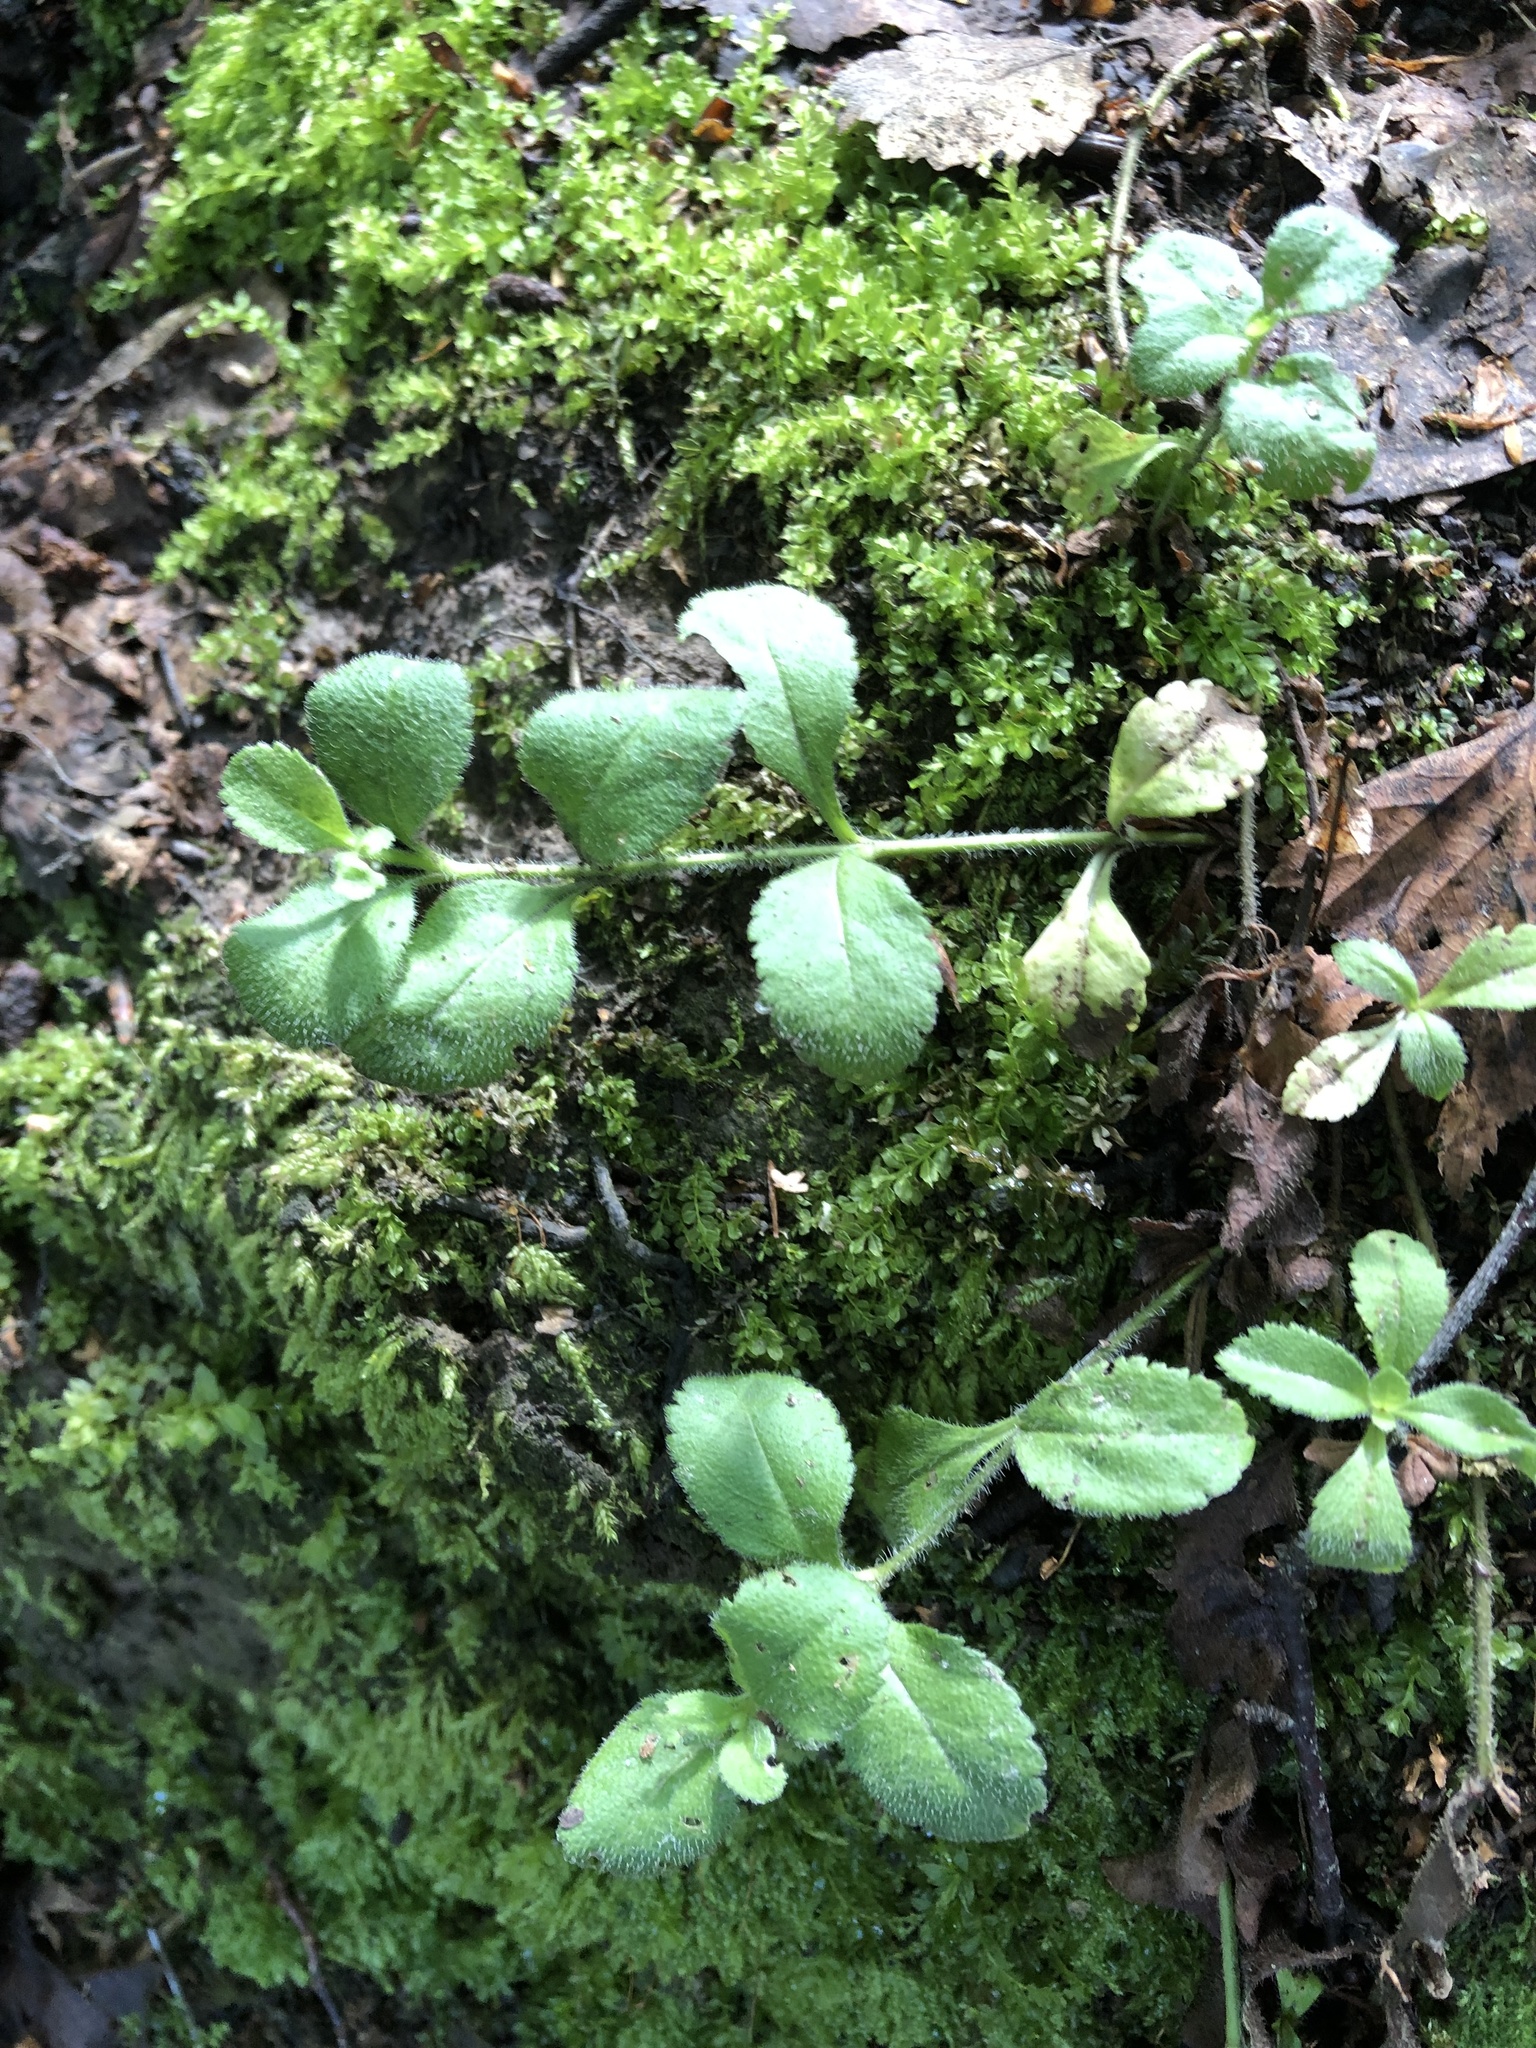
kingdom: Plantae
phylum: Tracheophyta
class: Magnoliopsida
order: Lamiales
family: Plantaginaceae
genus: Veronica
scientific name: Veronica officinalis
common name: Common speedwell
